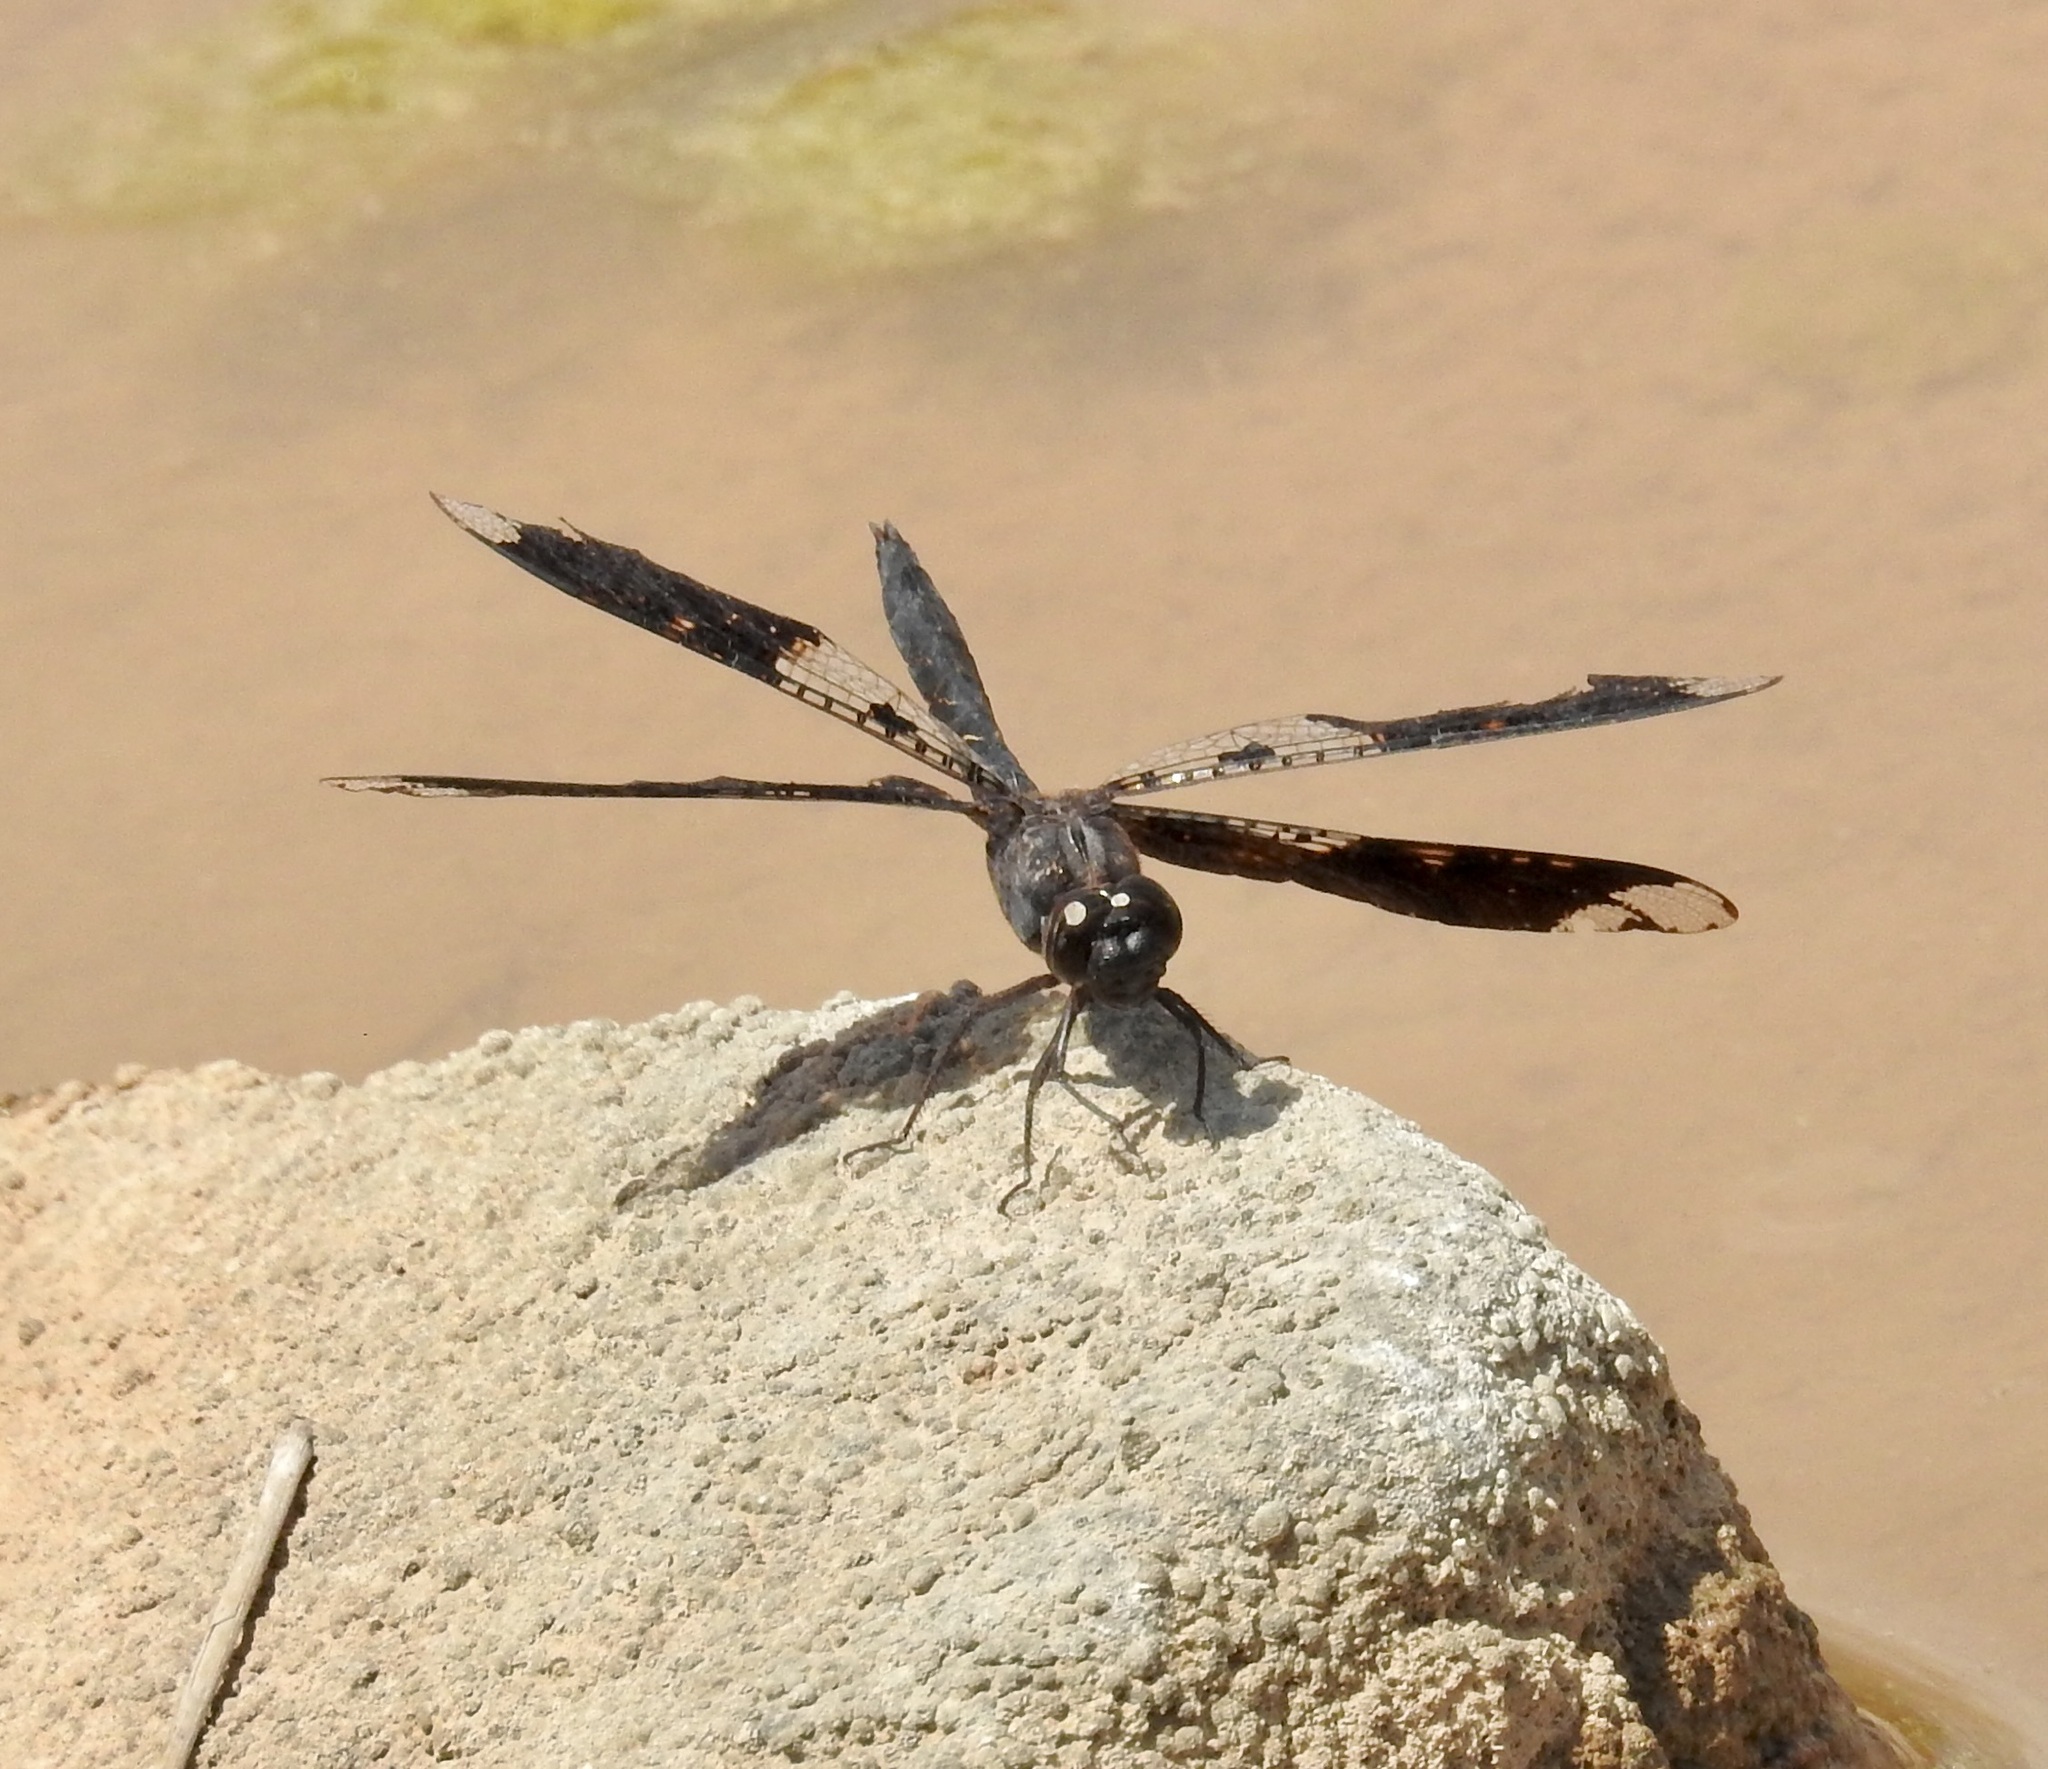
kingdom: Animalia
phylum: Arthropoda
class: Insecta
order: Odonata
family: Libellulidae
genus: Pseudoleon
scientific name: Pseudoleon superbus
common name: Filigree skimmer
